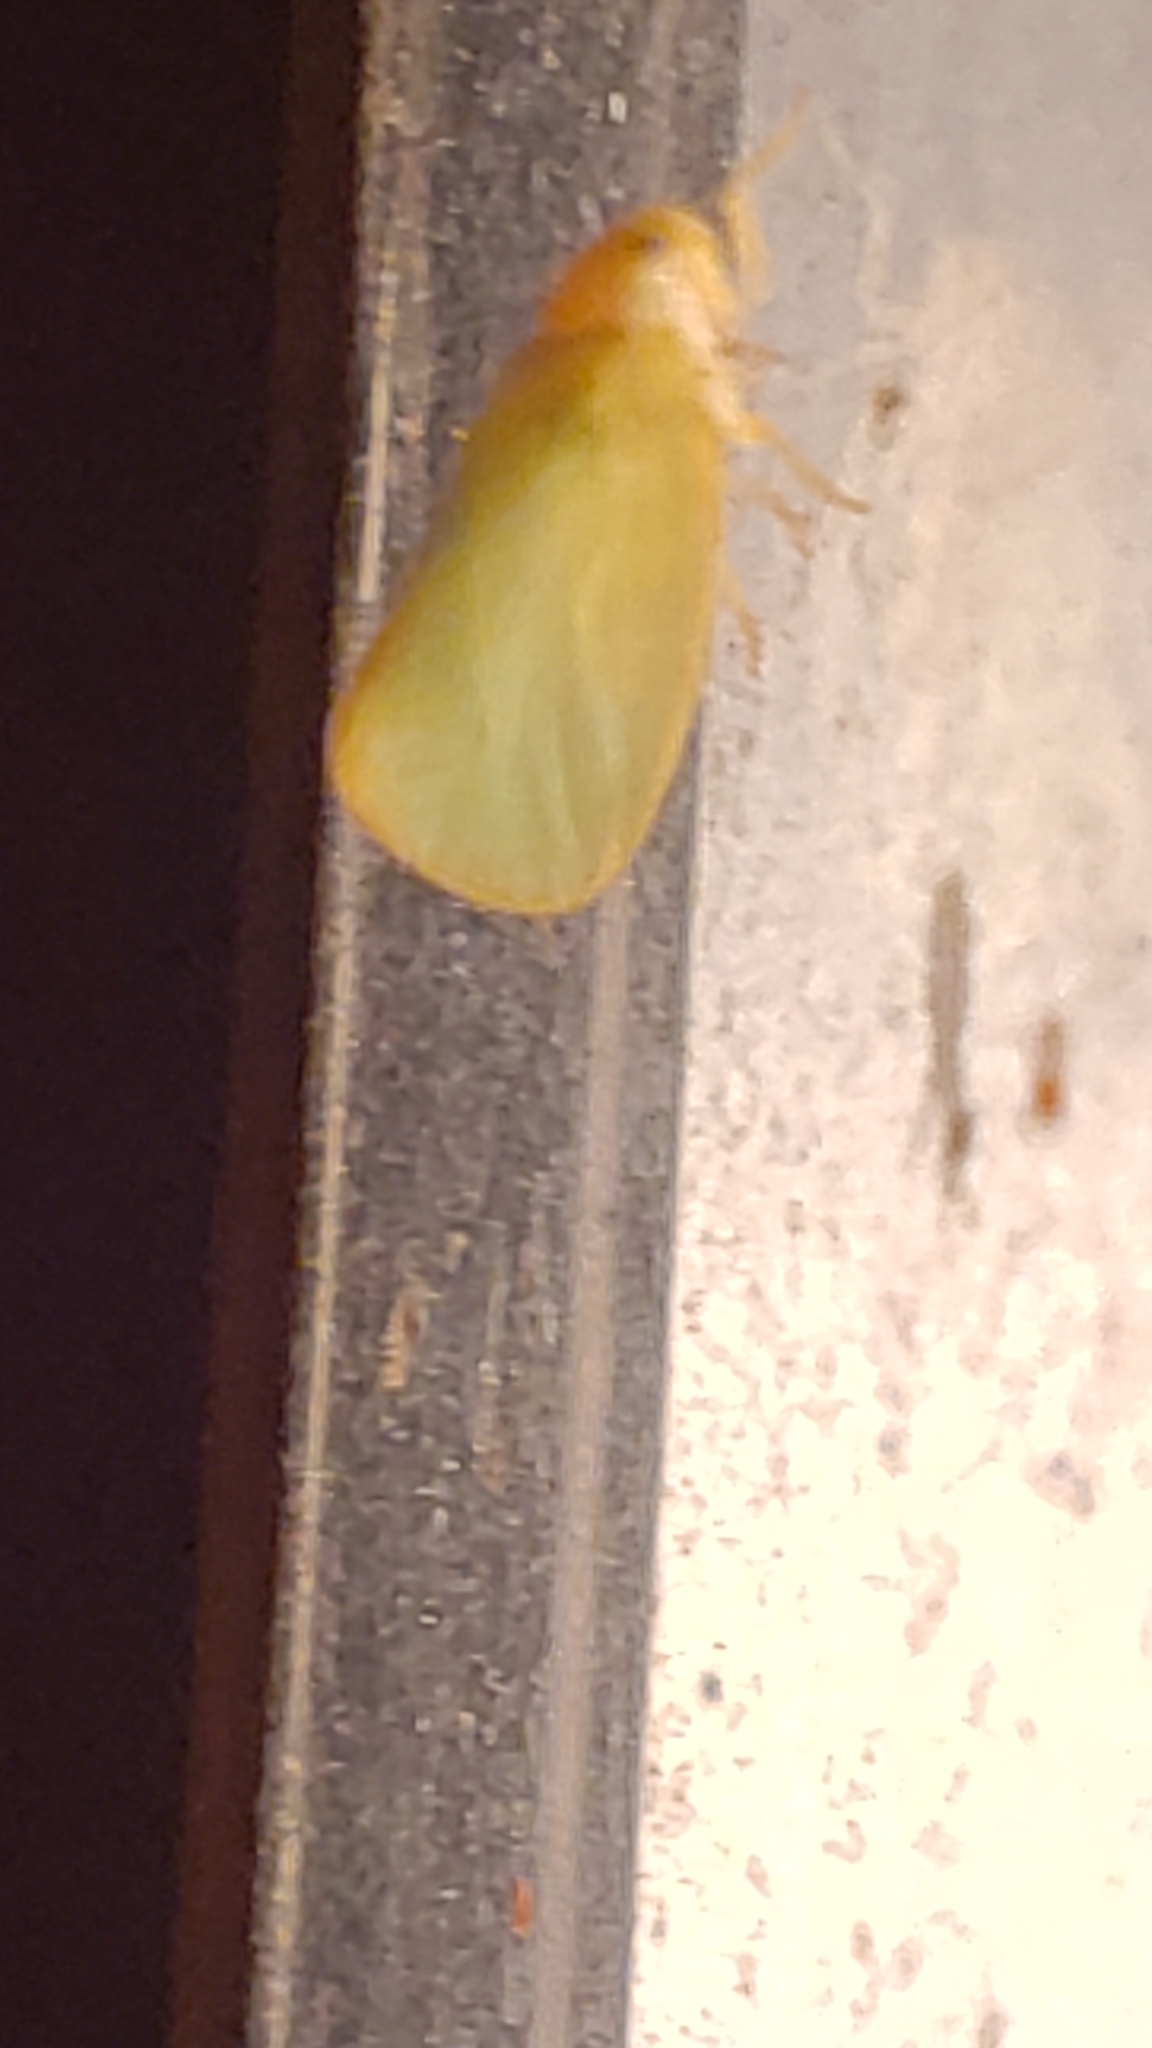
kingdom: Animalia
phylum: Arthropoda
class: Insecta
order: Hemiptera
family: Flatidae
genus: Ormenoides
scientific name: Ormenoides venusta
